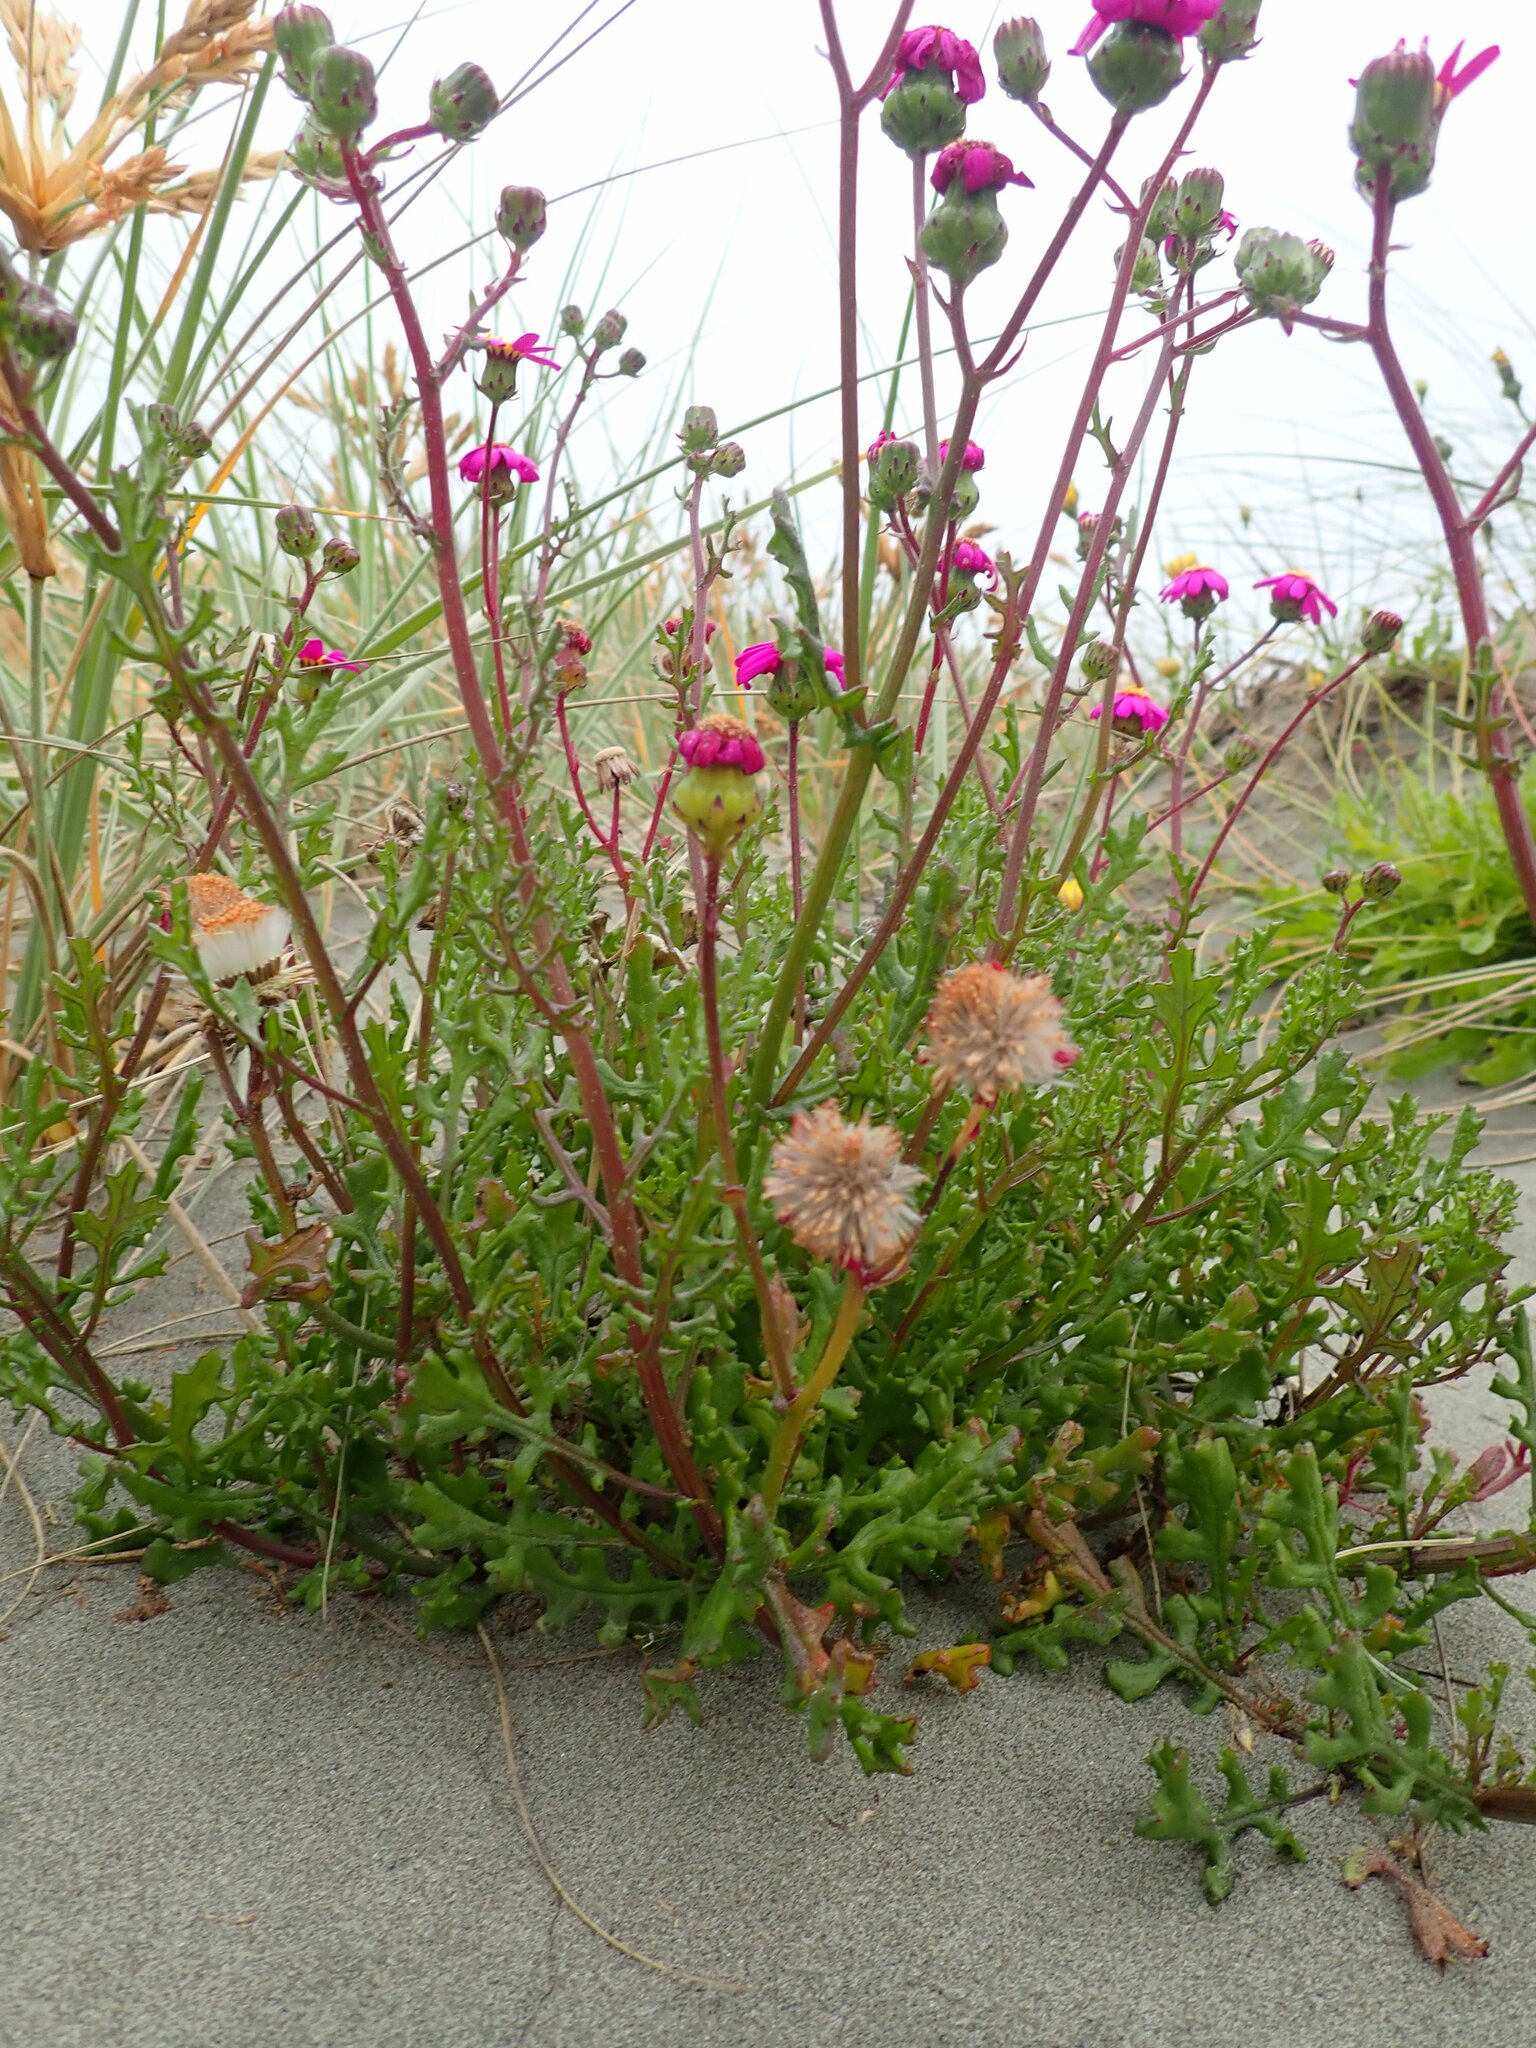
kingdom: Plantae
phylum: Tracheophyta
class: Magnoliopsida
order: Asterales
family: Asteraceae
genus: Senecio
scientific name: Senecio elegans
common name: Purple groundsel
